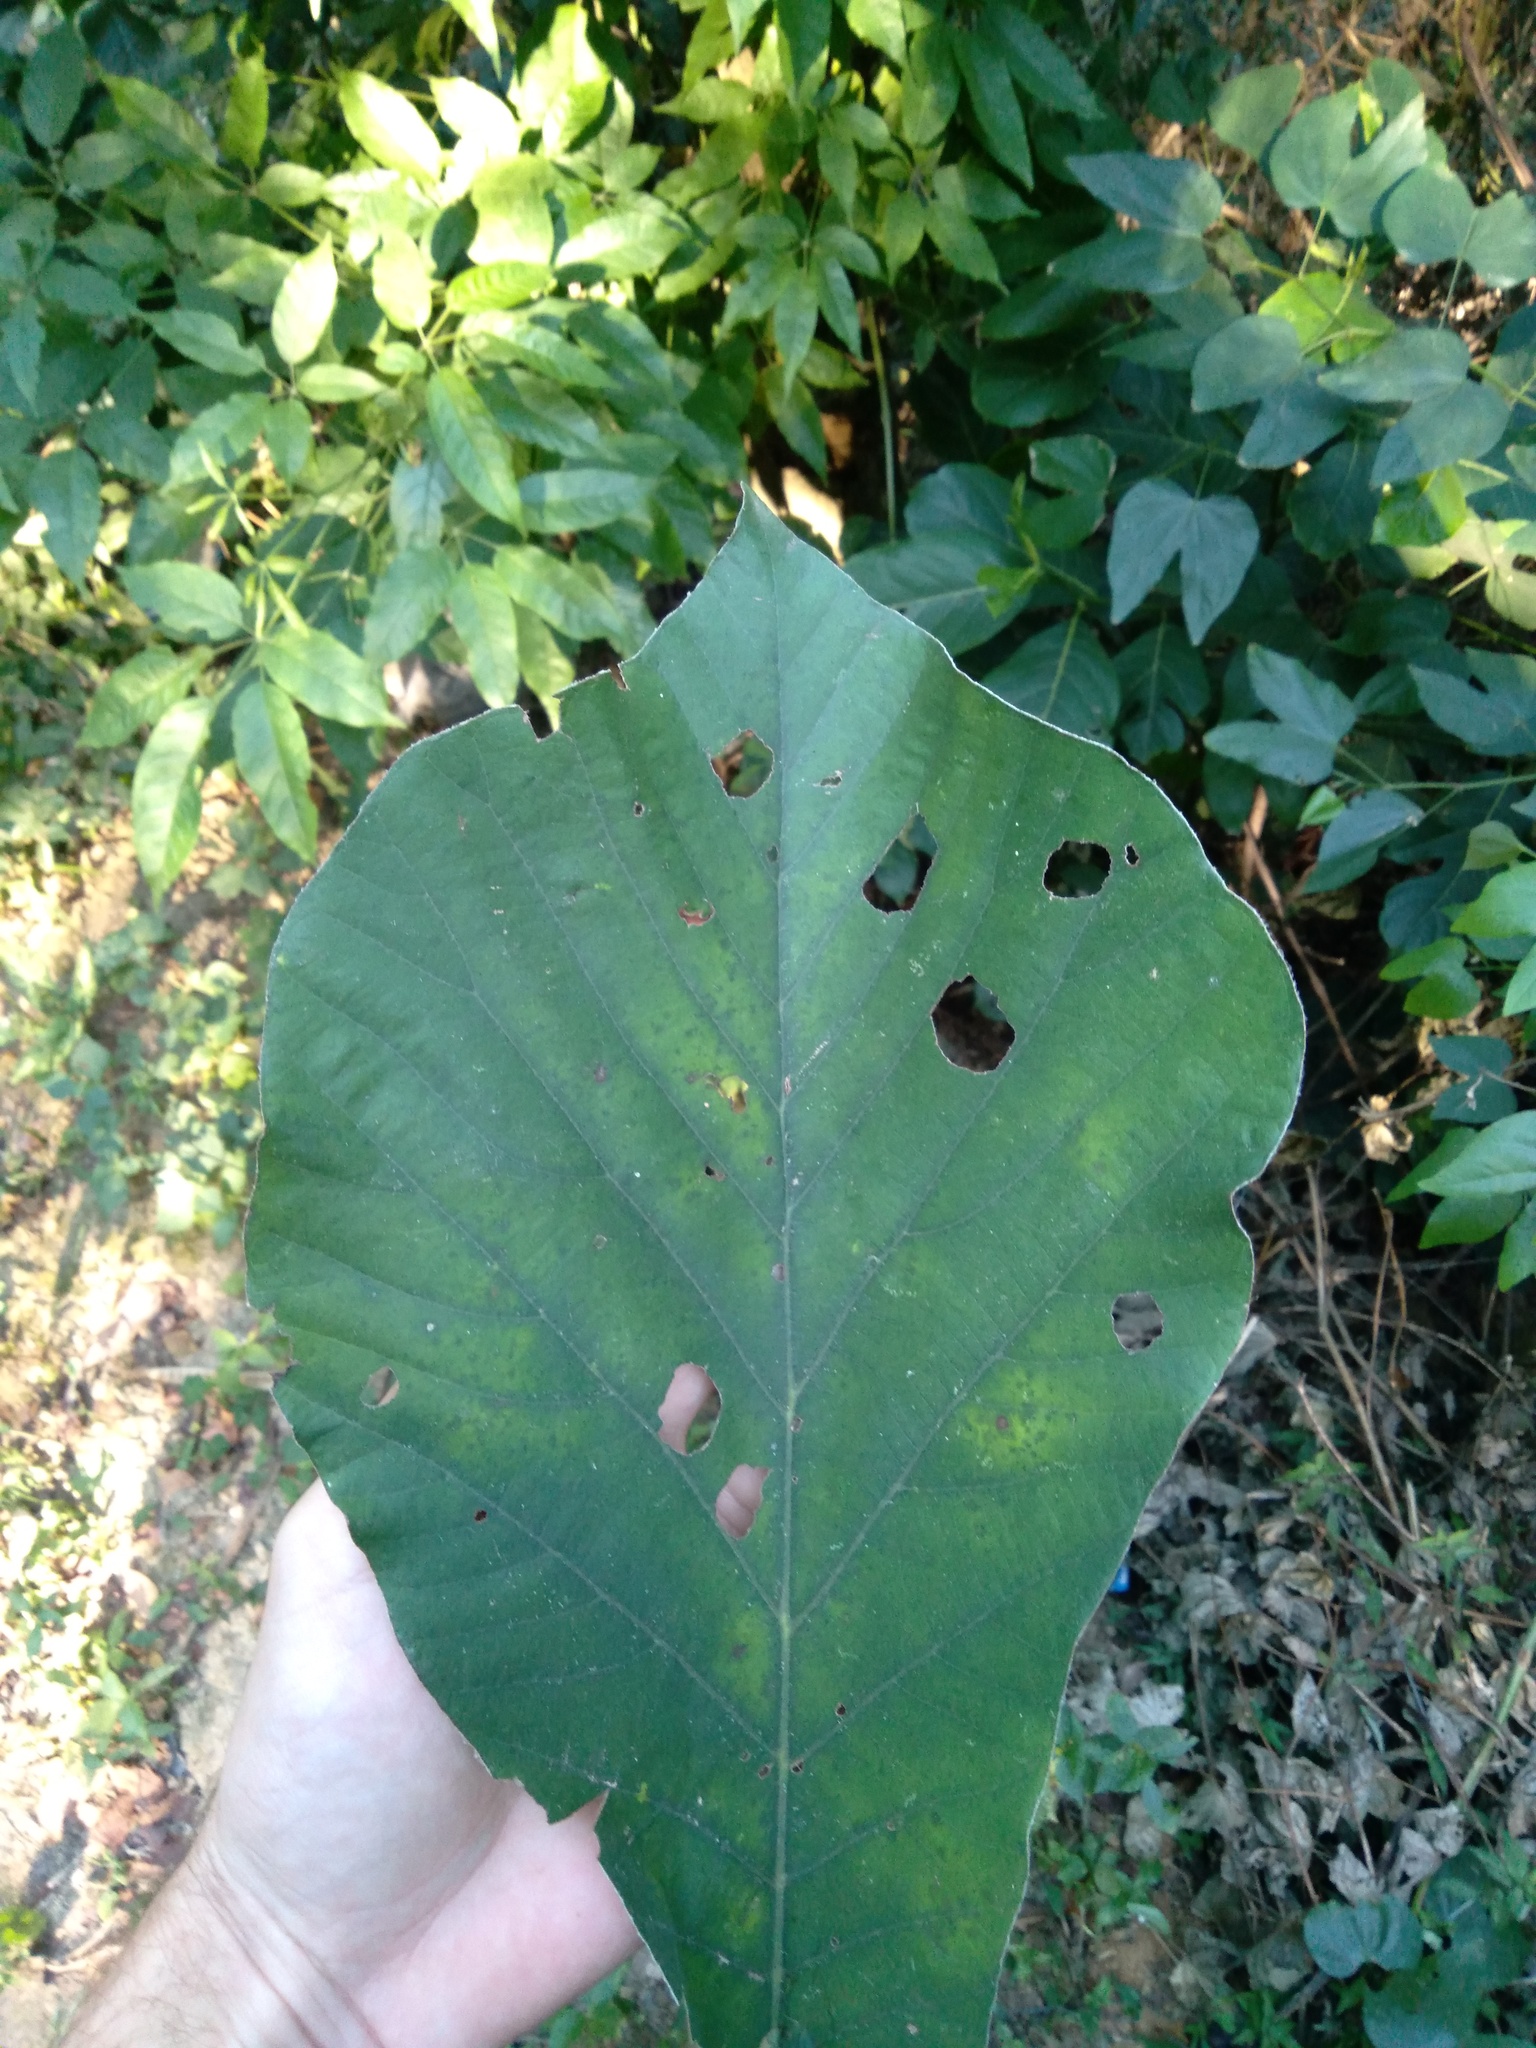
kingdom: Plantae
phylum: Tracheophyta
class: Magnoliopsida
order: Rosales
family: Urticaceae
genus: Cecropia
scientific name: Cecropia glaziovii
